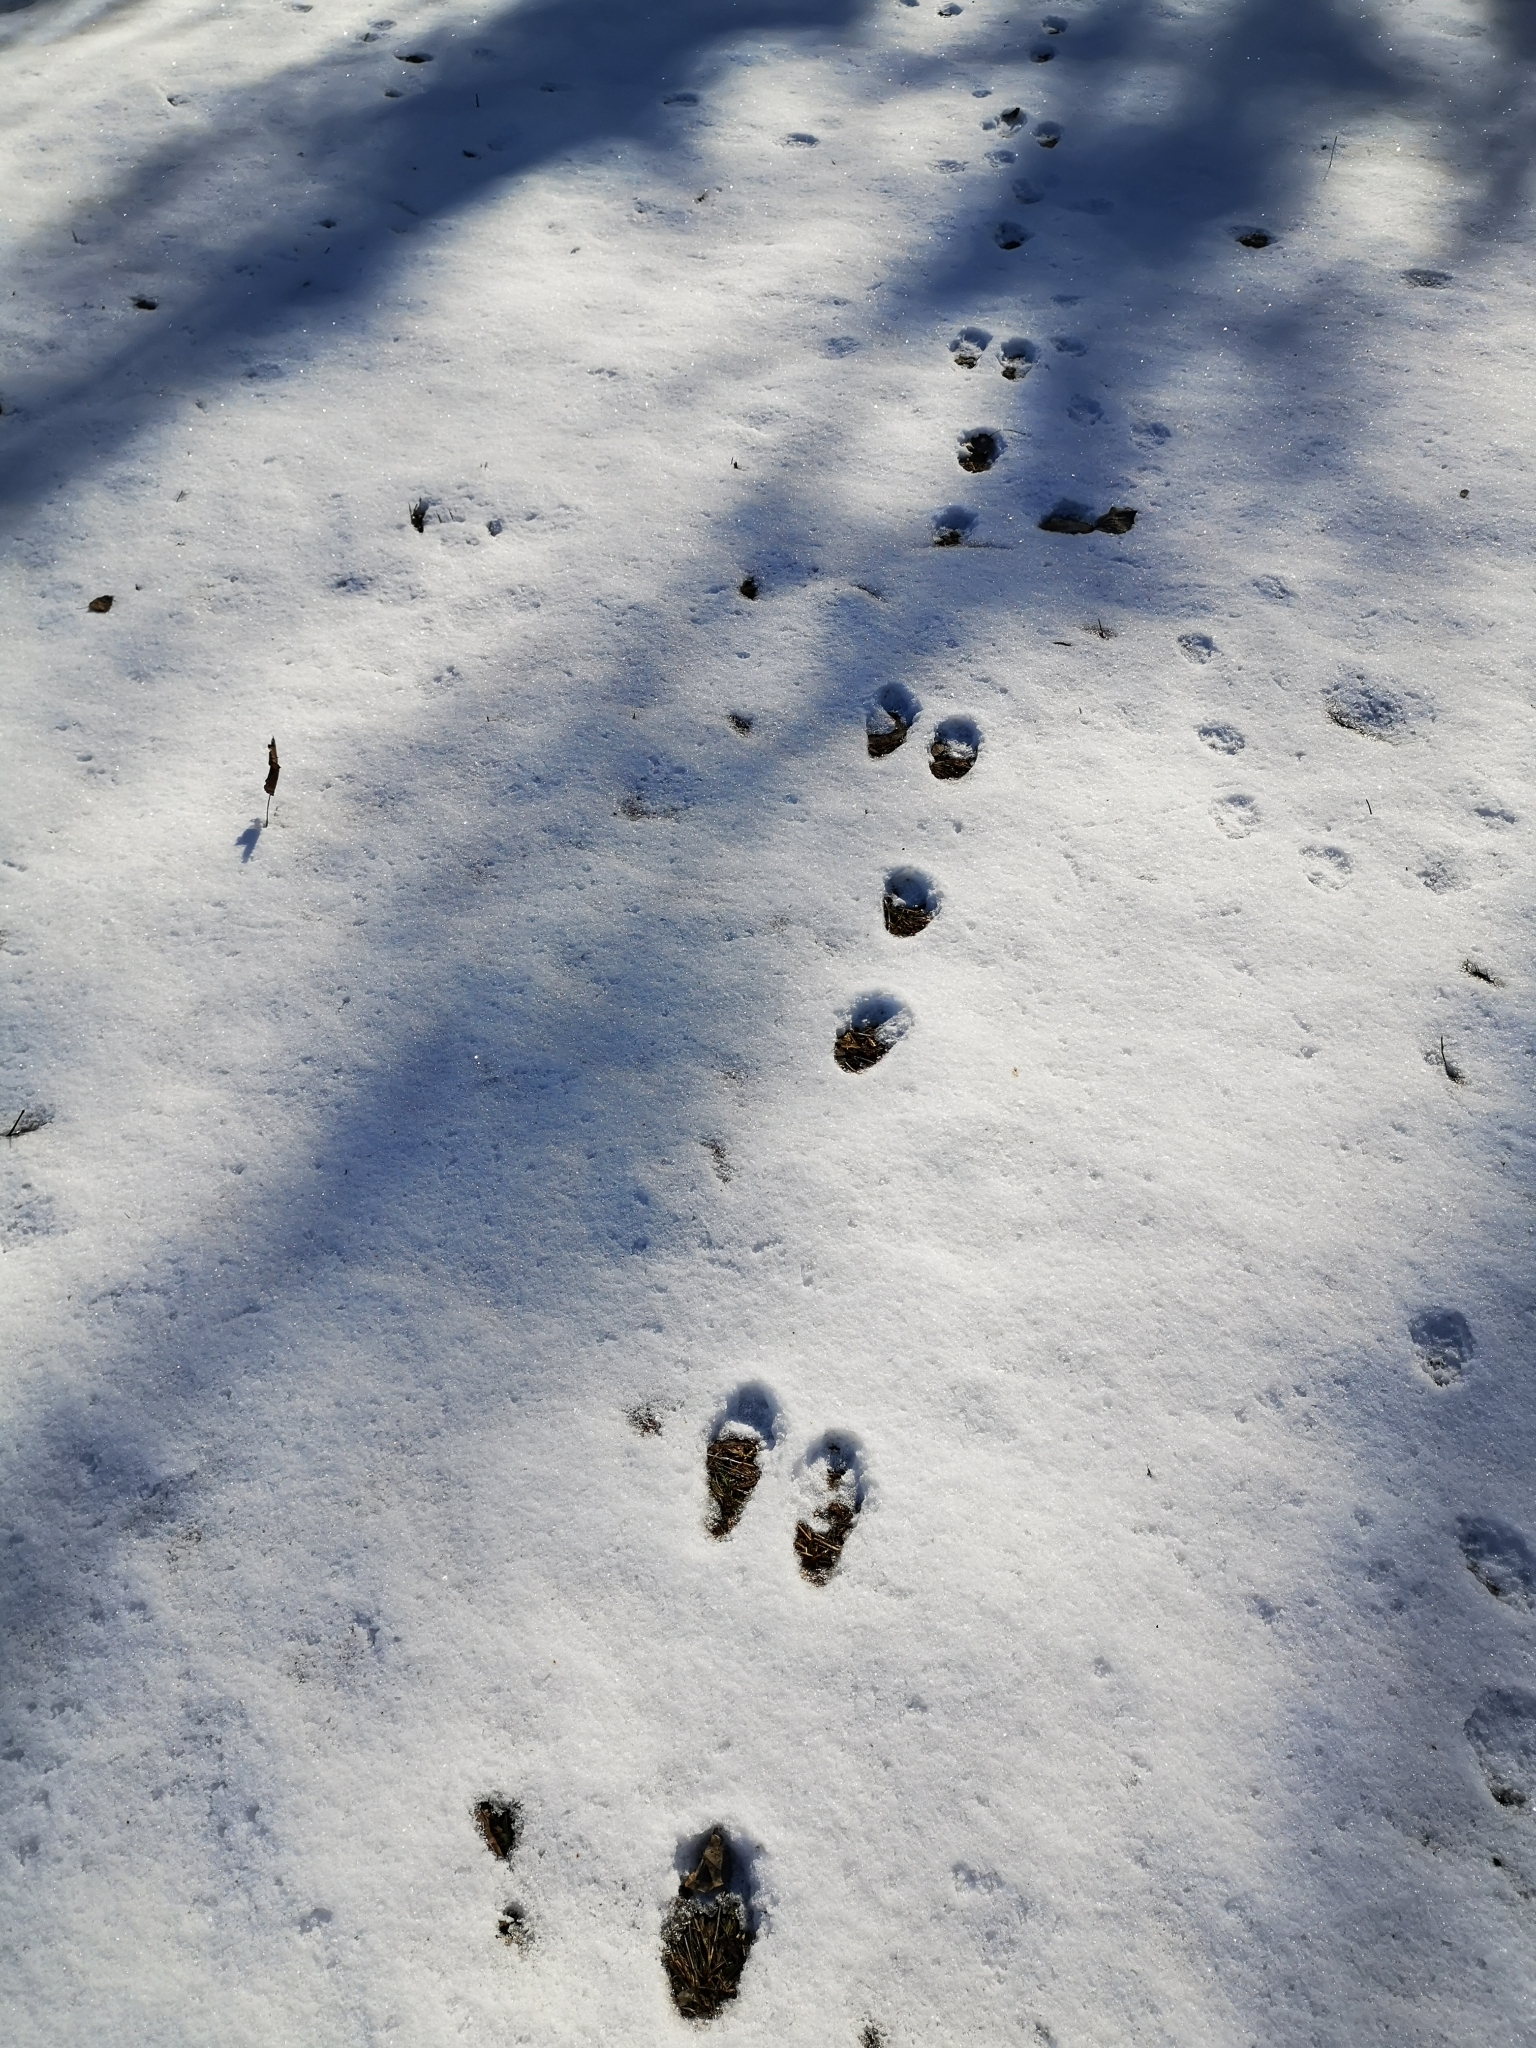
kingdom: Animalia
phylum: Chordata
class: Mammalia
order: Lagomorpha
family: Leporidae
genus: Lepus
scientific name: Lepus europaeus
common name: European hare
